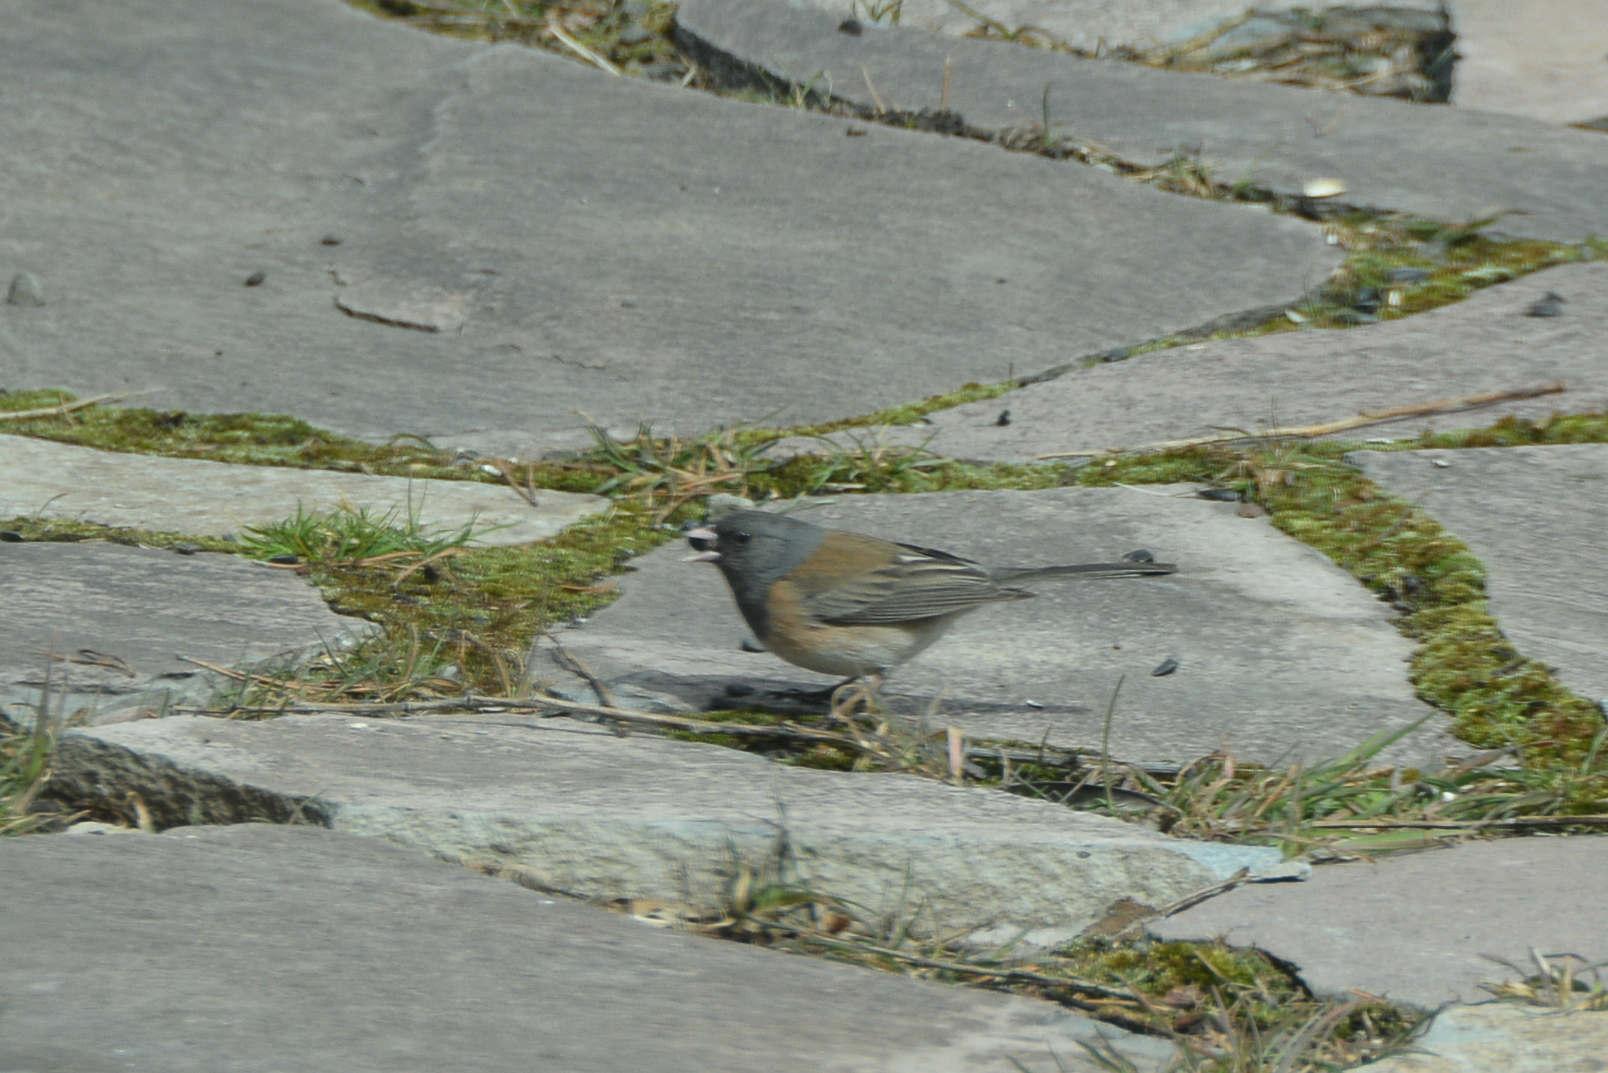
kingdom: Animalia
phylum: Chordata
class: Aves
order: Passeriformes
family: Passerellidae
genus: Junco
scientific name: Junco hyemalis
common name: Dark-eyed junco
